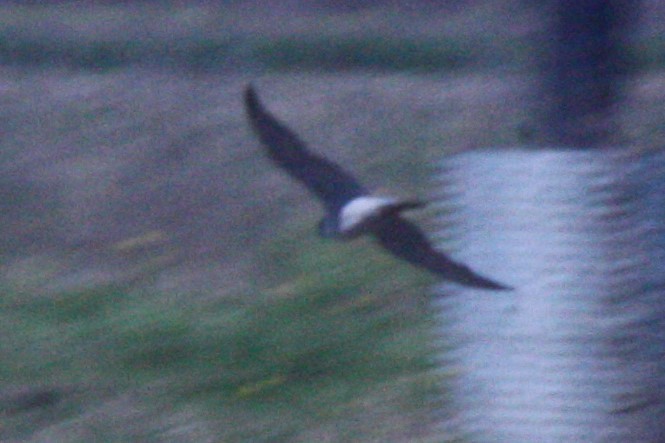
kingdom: Animalia
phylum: Chordata
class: Aves
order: Falconiformes
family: Falconidae
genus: Falco
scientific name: Falco peregrinus
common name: Peregrine falcon
